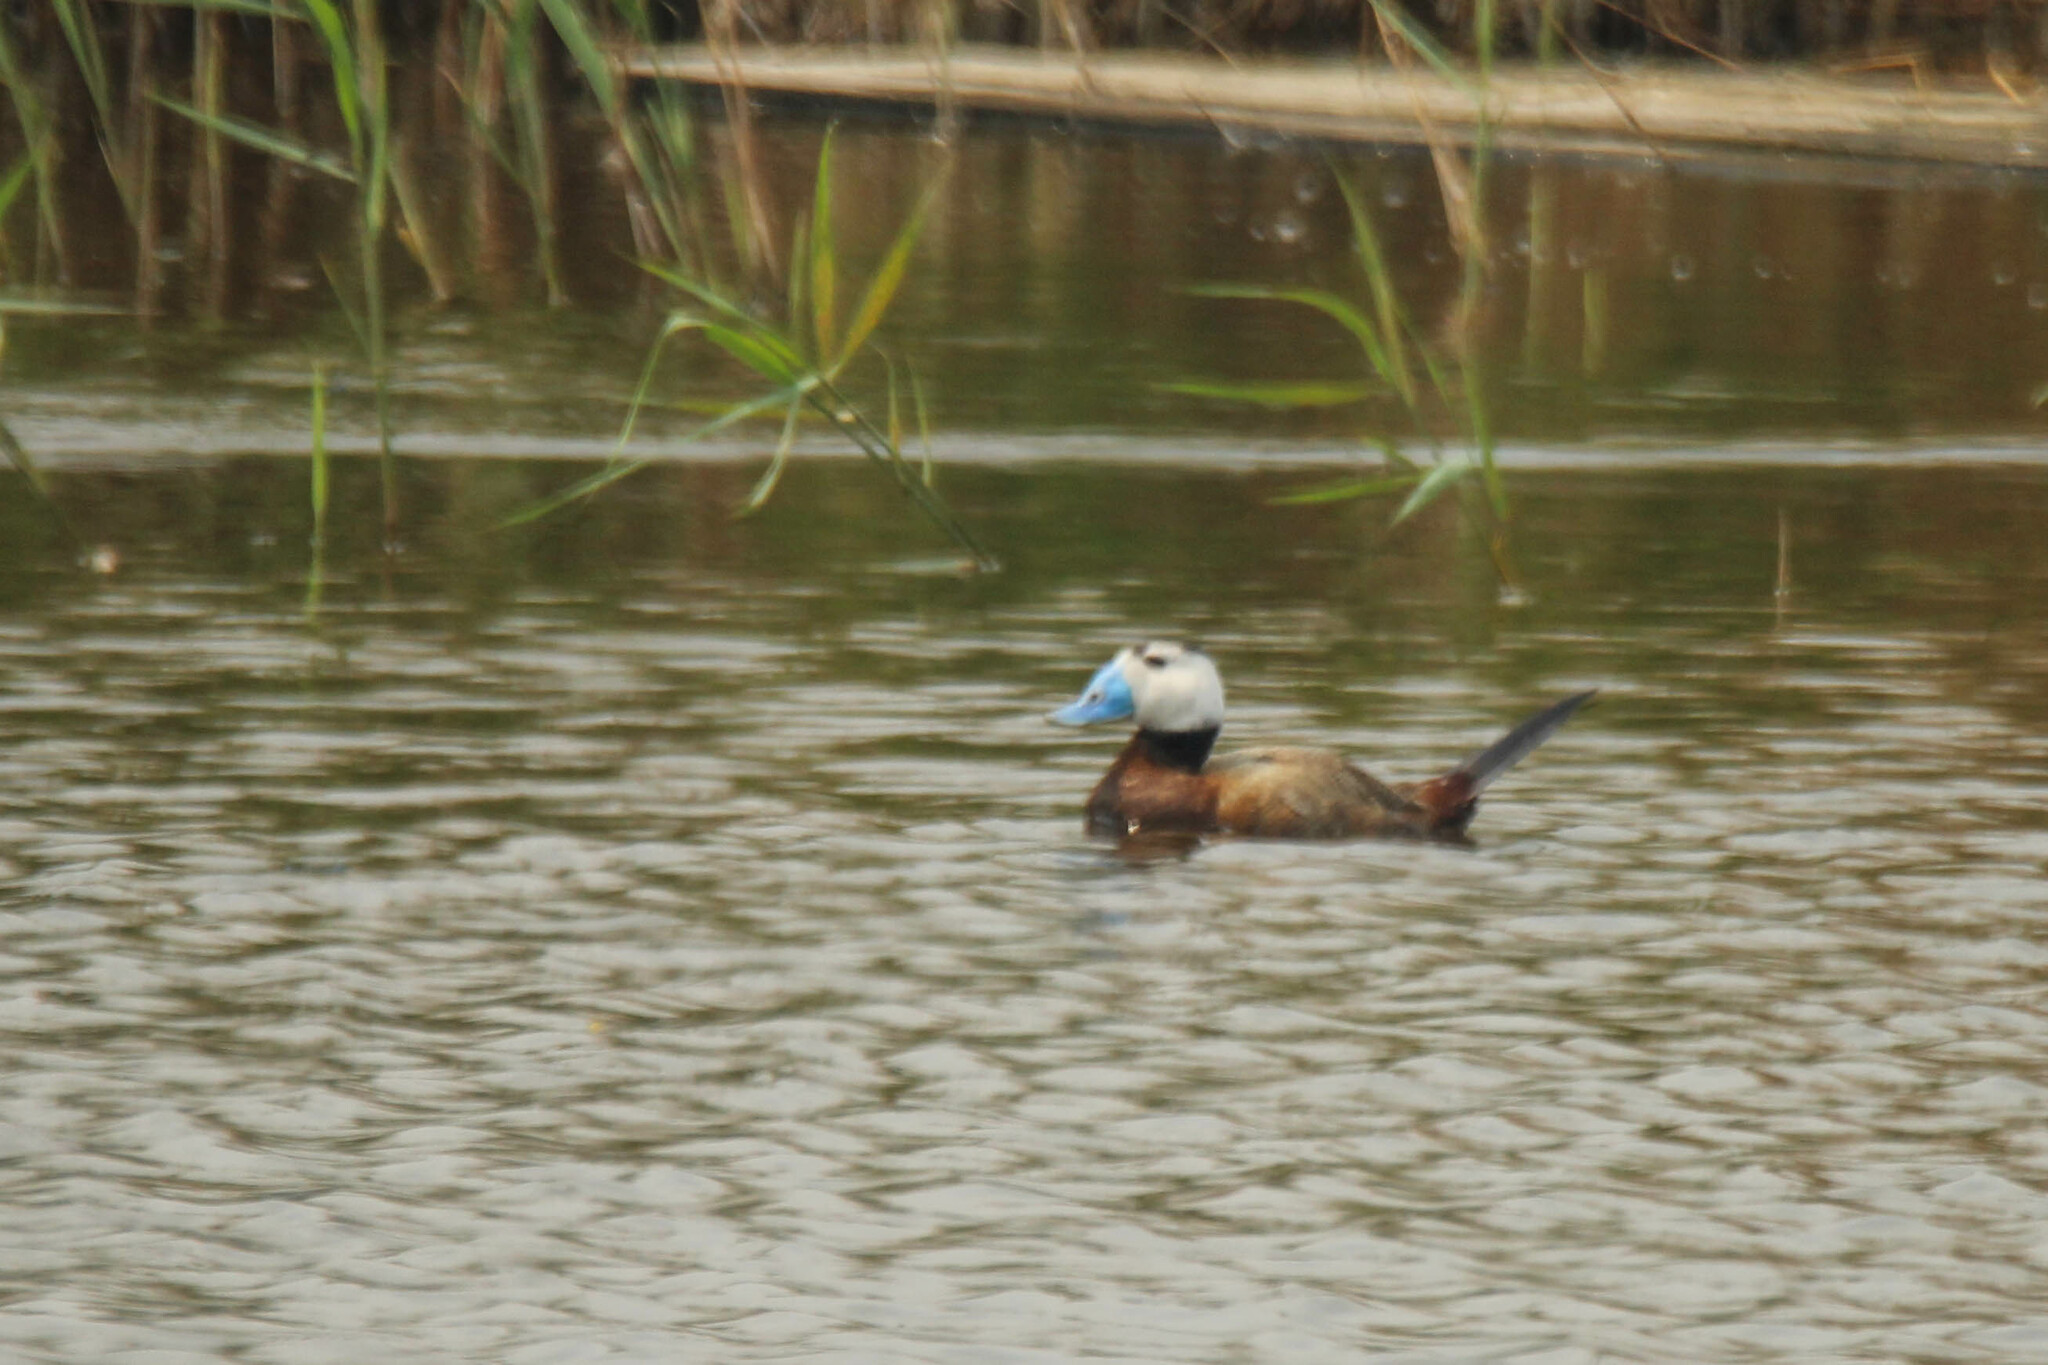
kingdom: Animalia
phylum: Chordata
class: Aves
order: Anseriformes
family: Anatidae
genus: Oxyura
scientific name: Oxyura leucocephala
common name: White-headed duck
